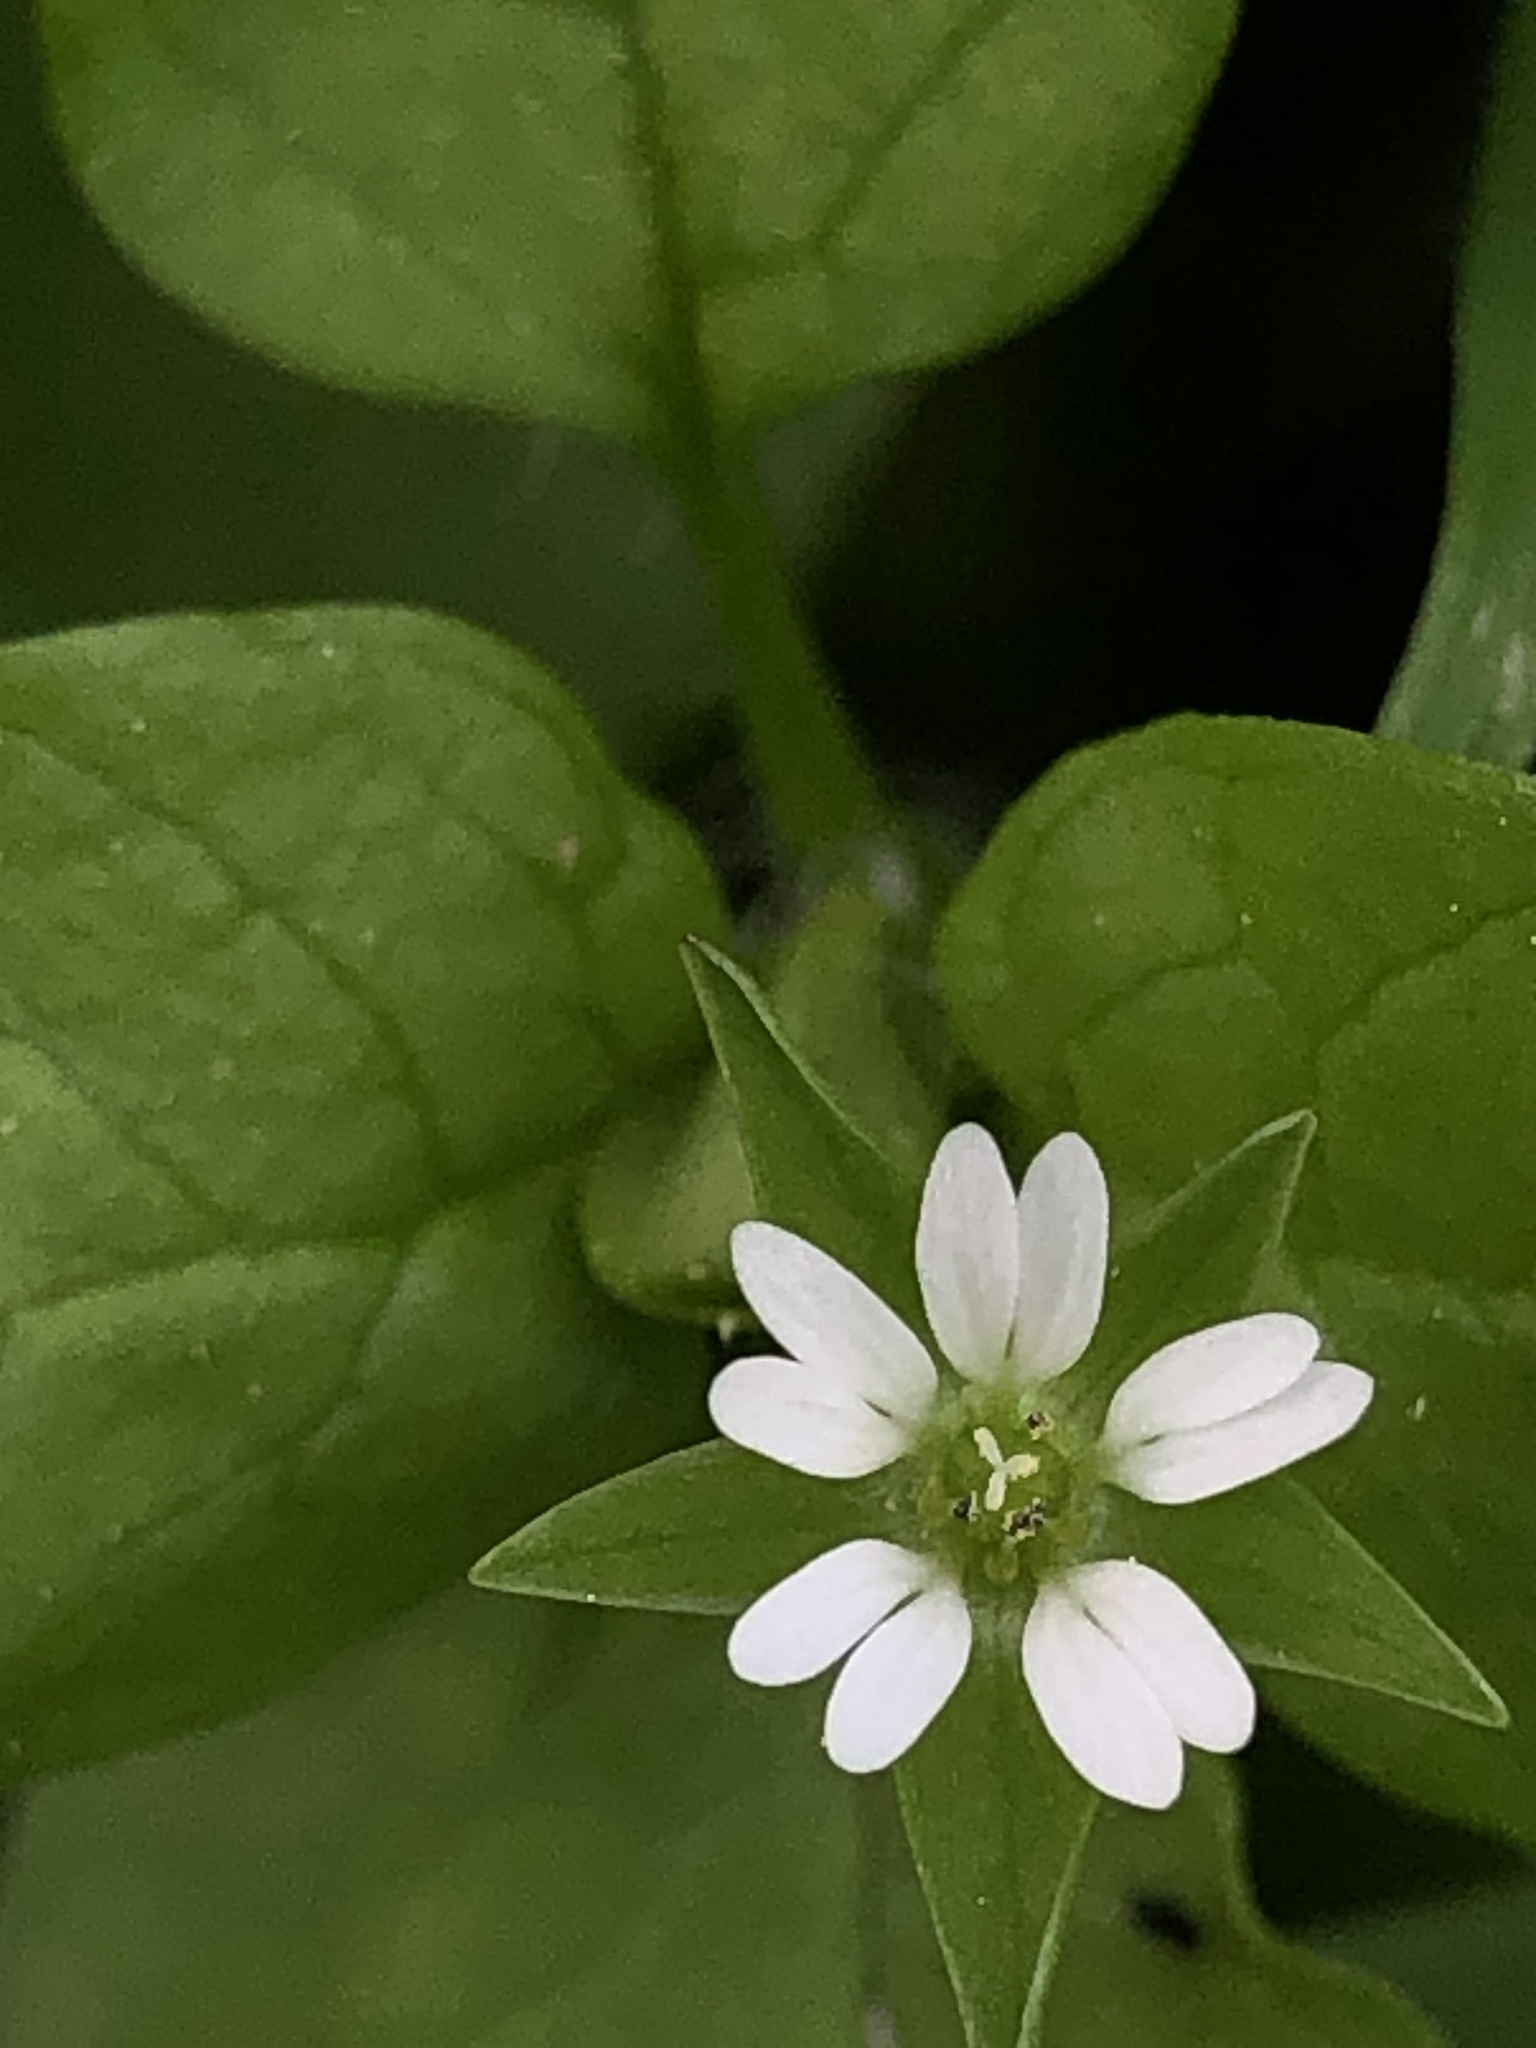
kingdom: Plantae
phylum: Tracheophyta
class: Magnoliopsida
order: Caryophyllales
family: Caryophyllaceae
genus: Stellaria
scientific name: Stellaria media
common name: Common chickweed
